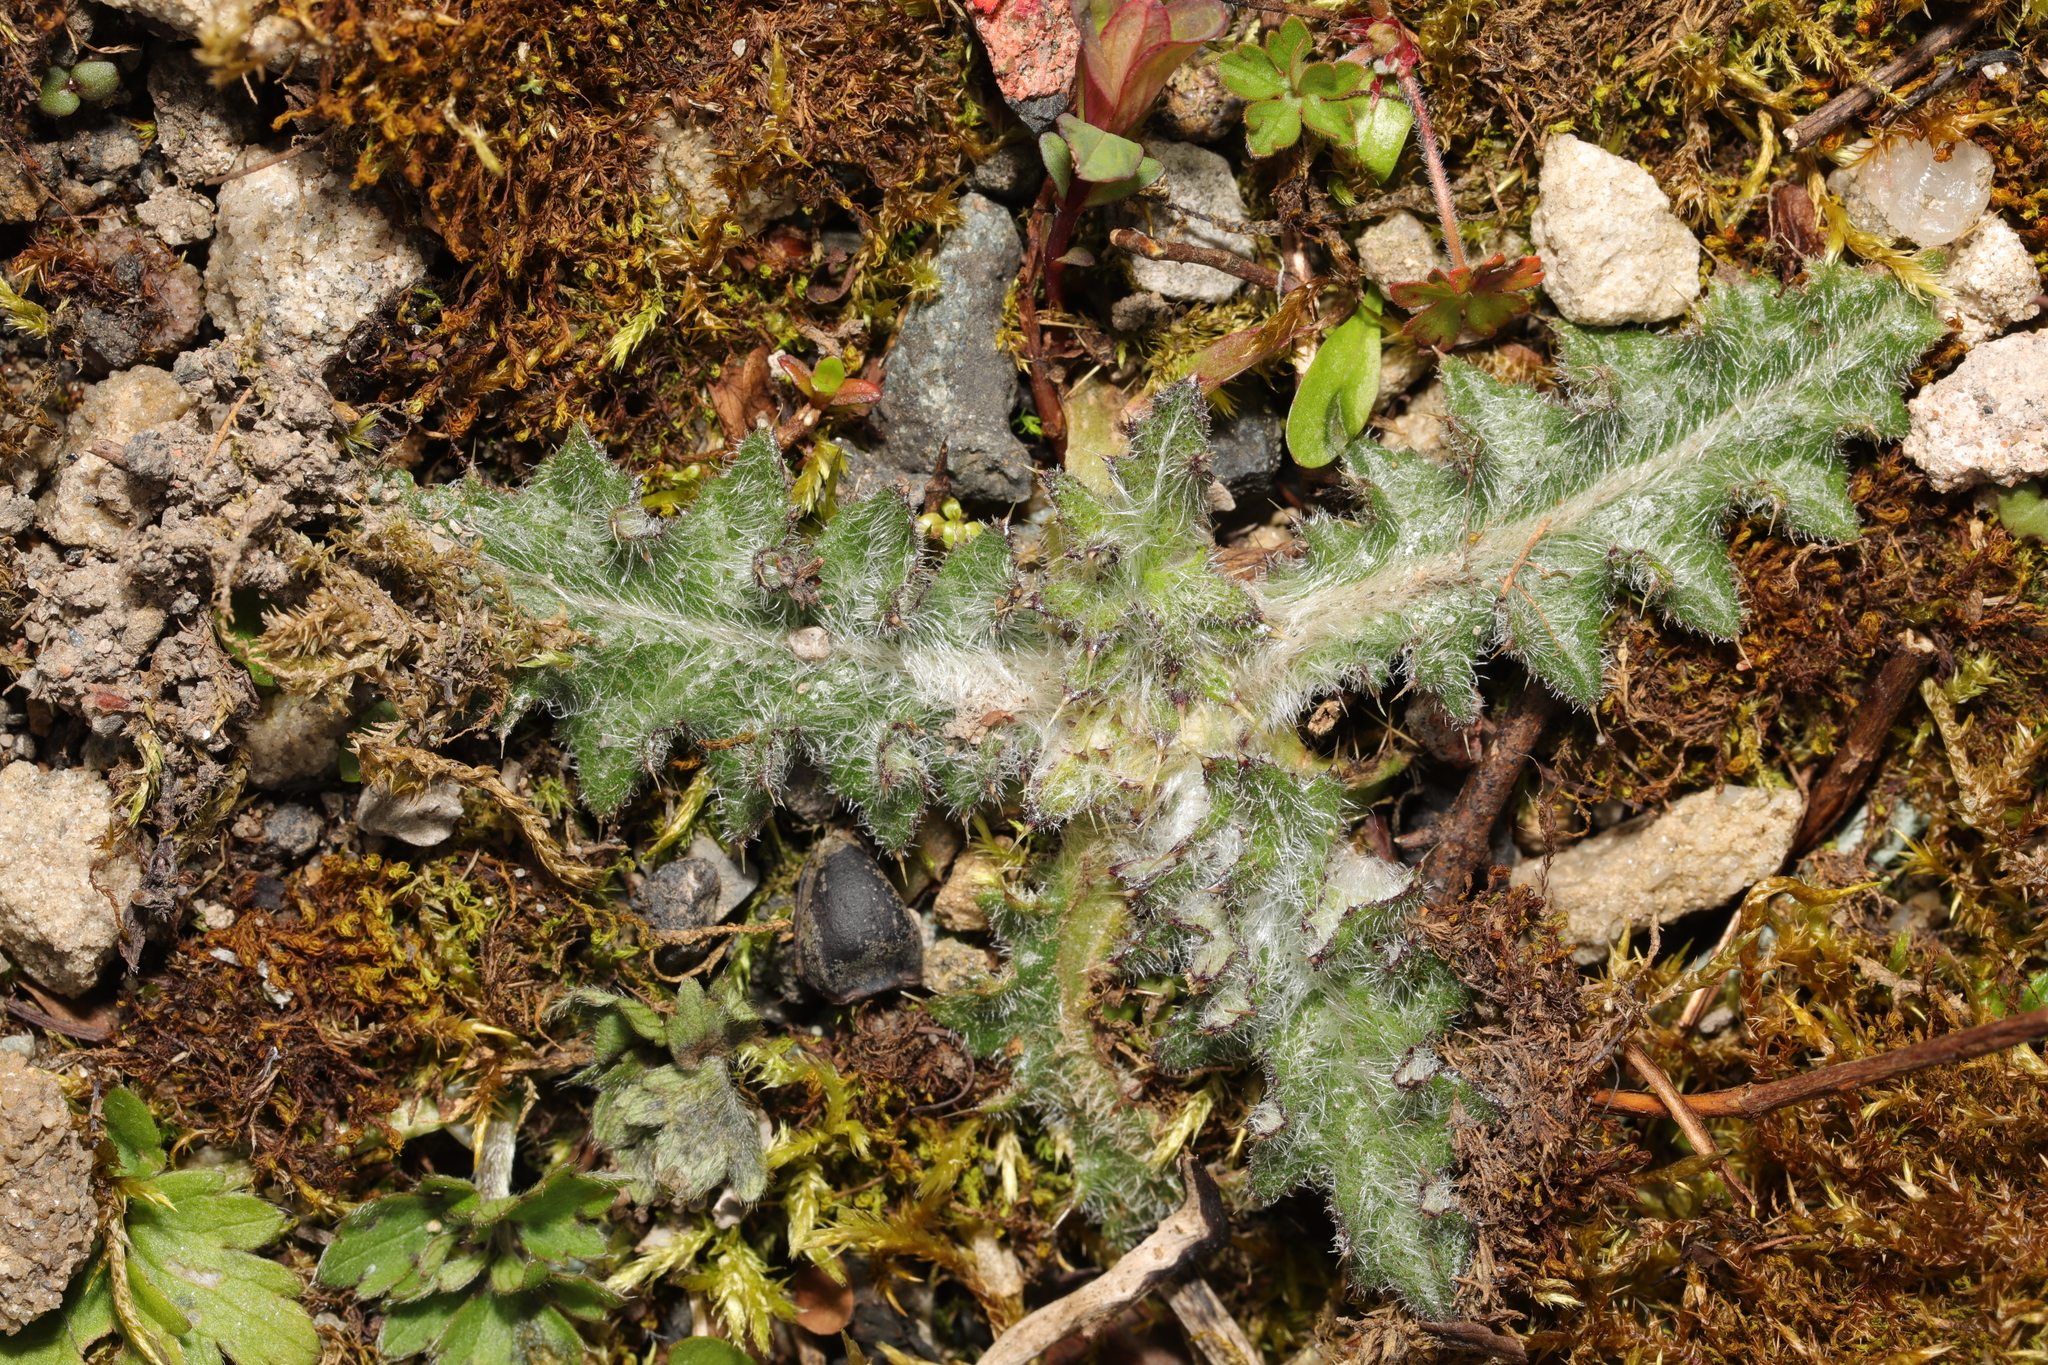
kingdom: Plantae
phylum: Tracheophyta
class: Magnoliopsida
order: Asterales
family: Asteraceae
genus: Cirsium
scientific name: Cirsium vulgare
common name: Bull thistle
